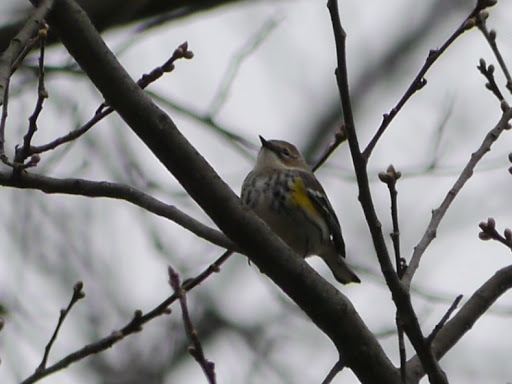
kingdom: Animalia
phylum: Chordata
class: Aves
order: Passeriformes
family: Parulidae
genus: Setophaga
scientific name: Setophaga coronata
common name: Myrtle warbler
